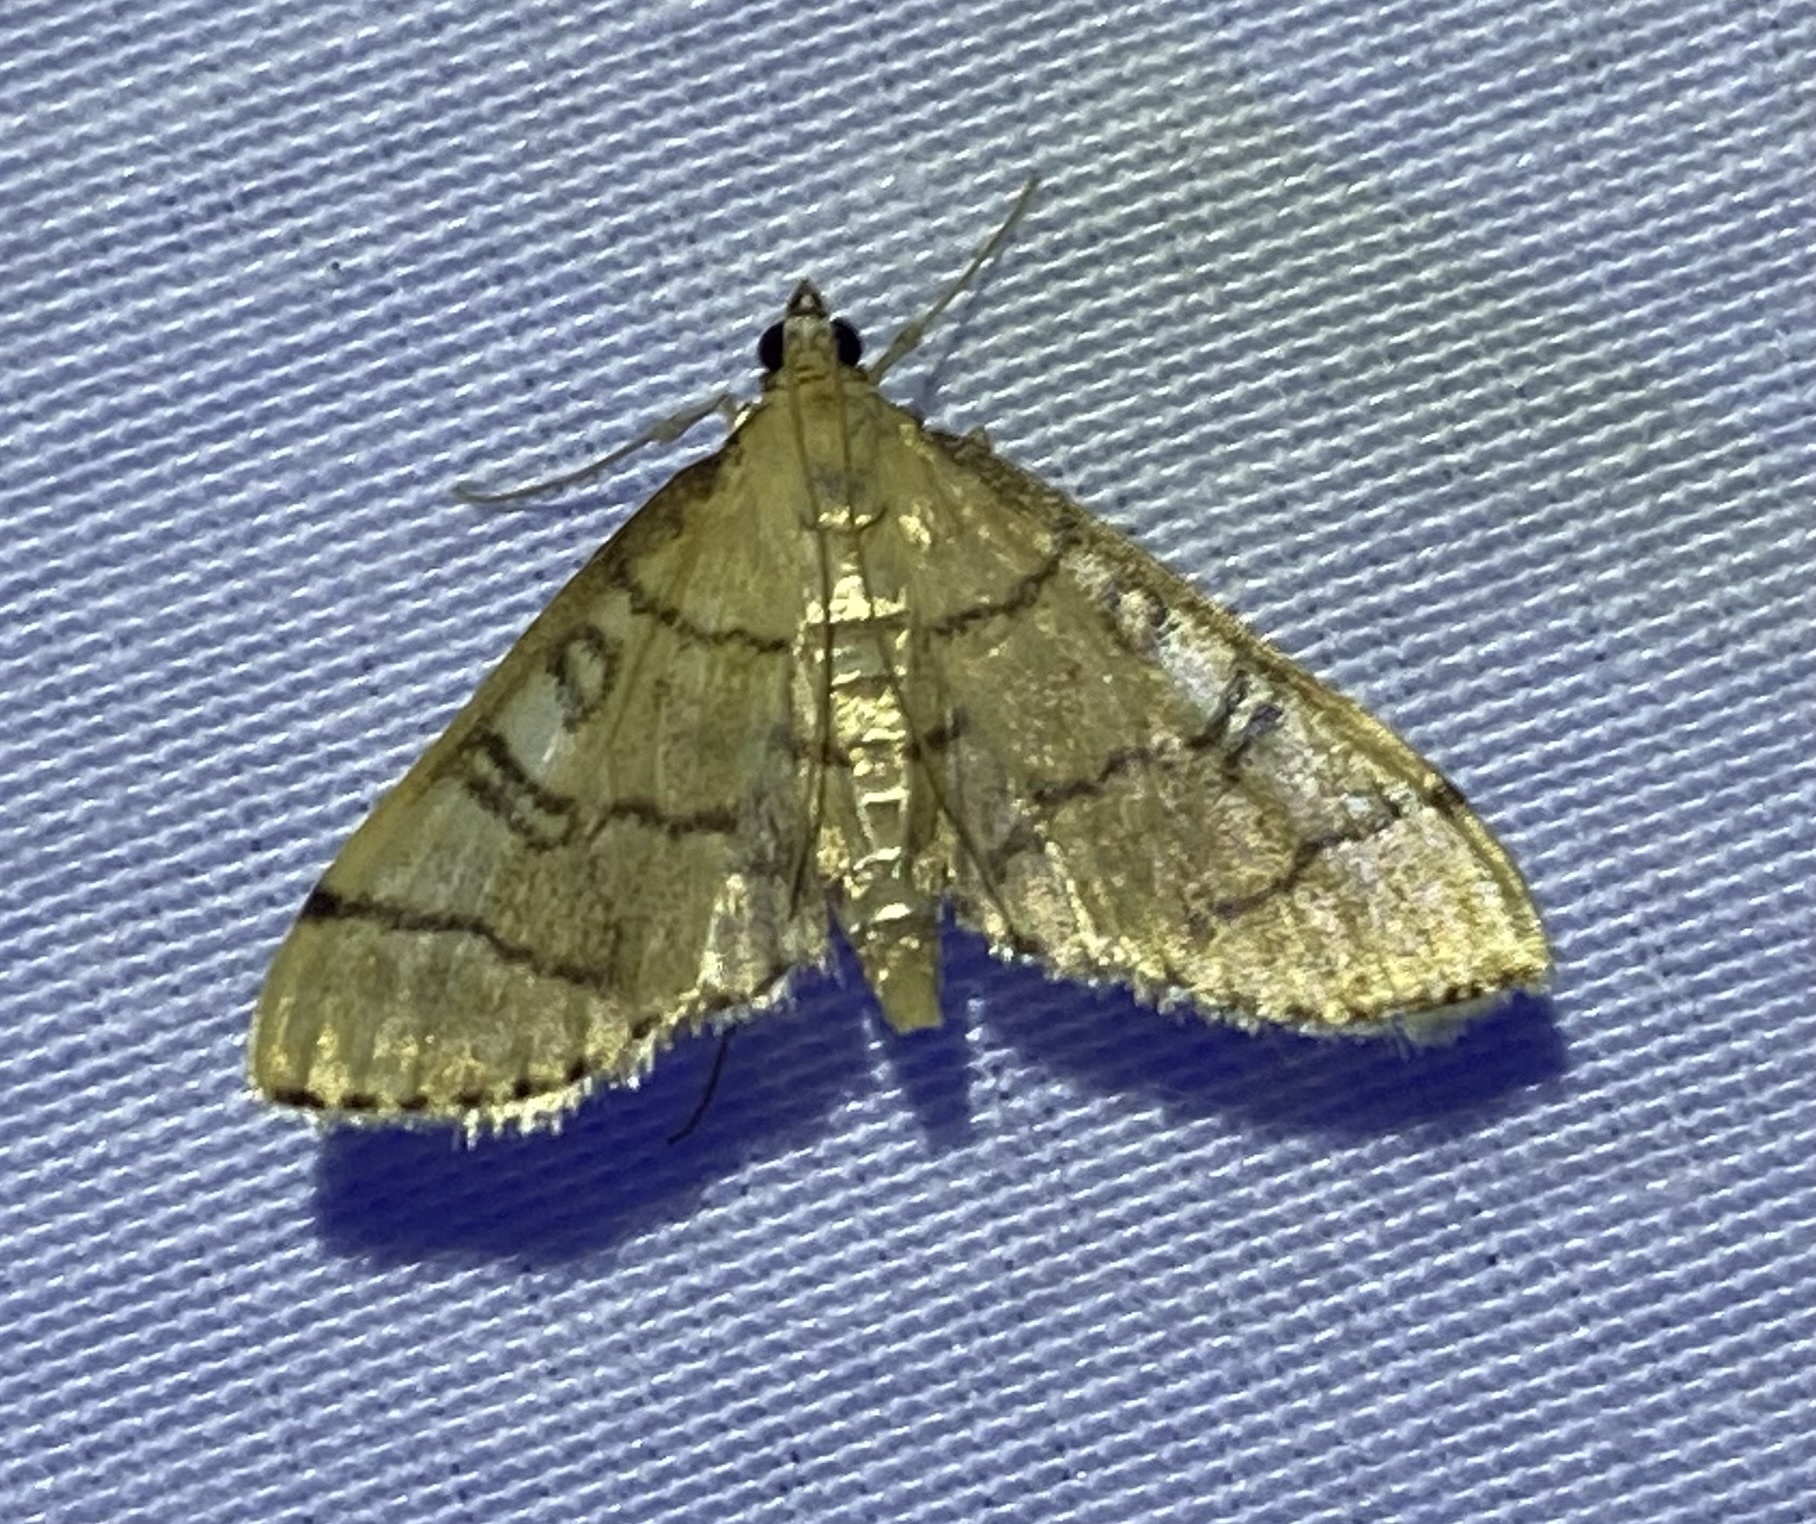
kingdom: Animalia
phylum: Arthropoda
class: Insecta
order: Lepidoptera
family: Crambidae
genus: Lamprosema
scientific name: Lamprosema Blepharomastix ranalis
